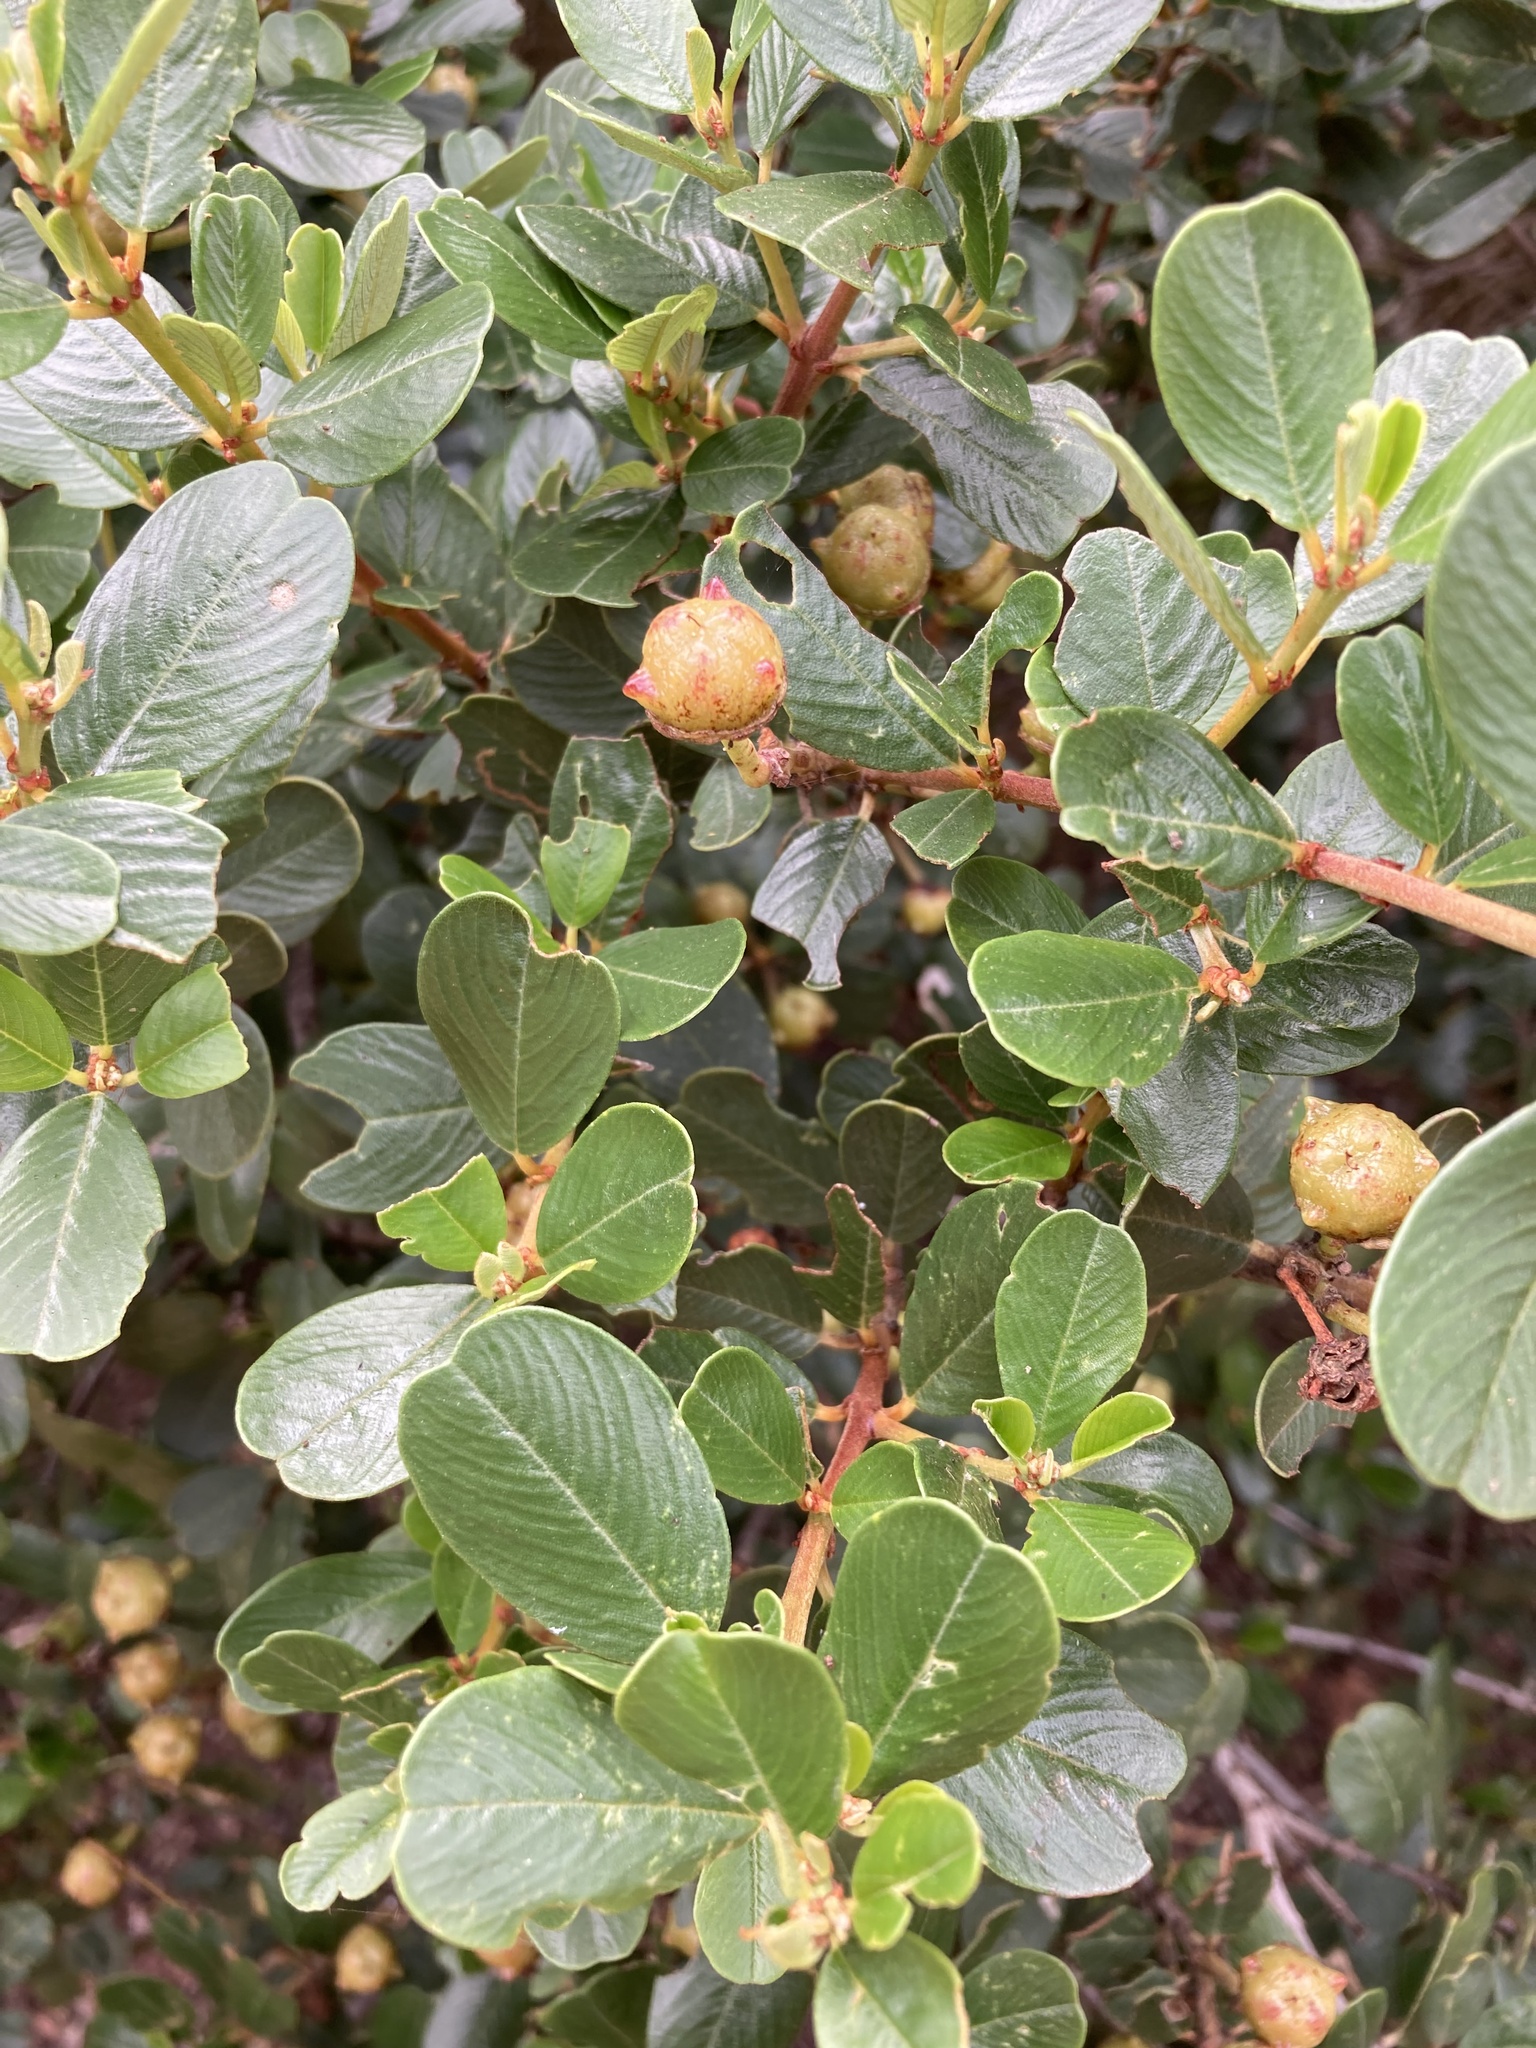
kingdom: Plantae
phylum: Tracheophyta
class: Magnoliopsida
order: Rosales
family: Rhamnaceae
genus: Ceanothus
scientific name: Ceanothus megacarpus
